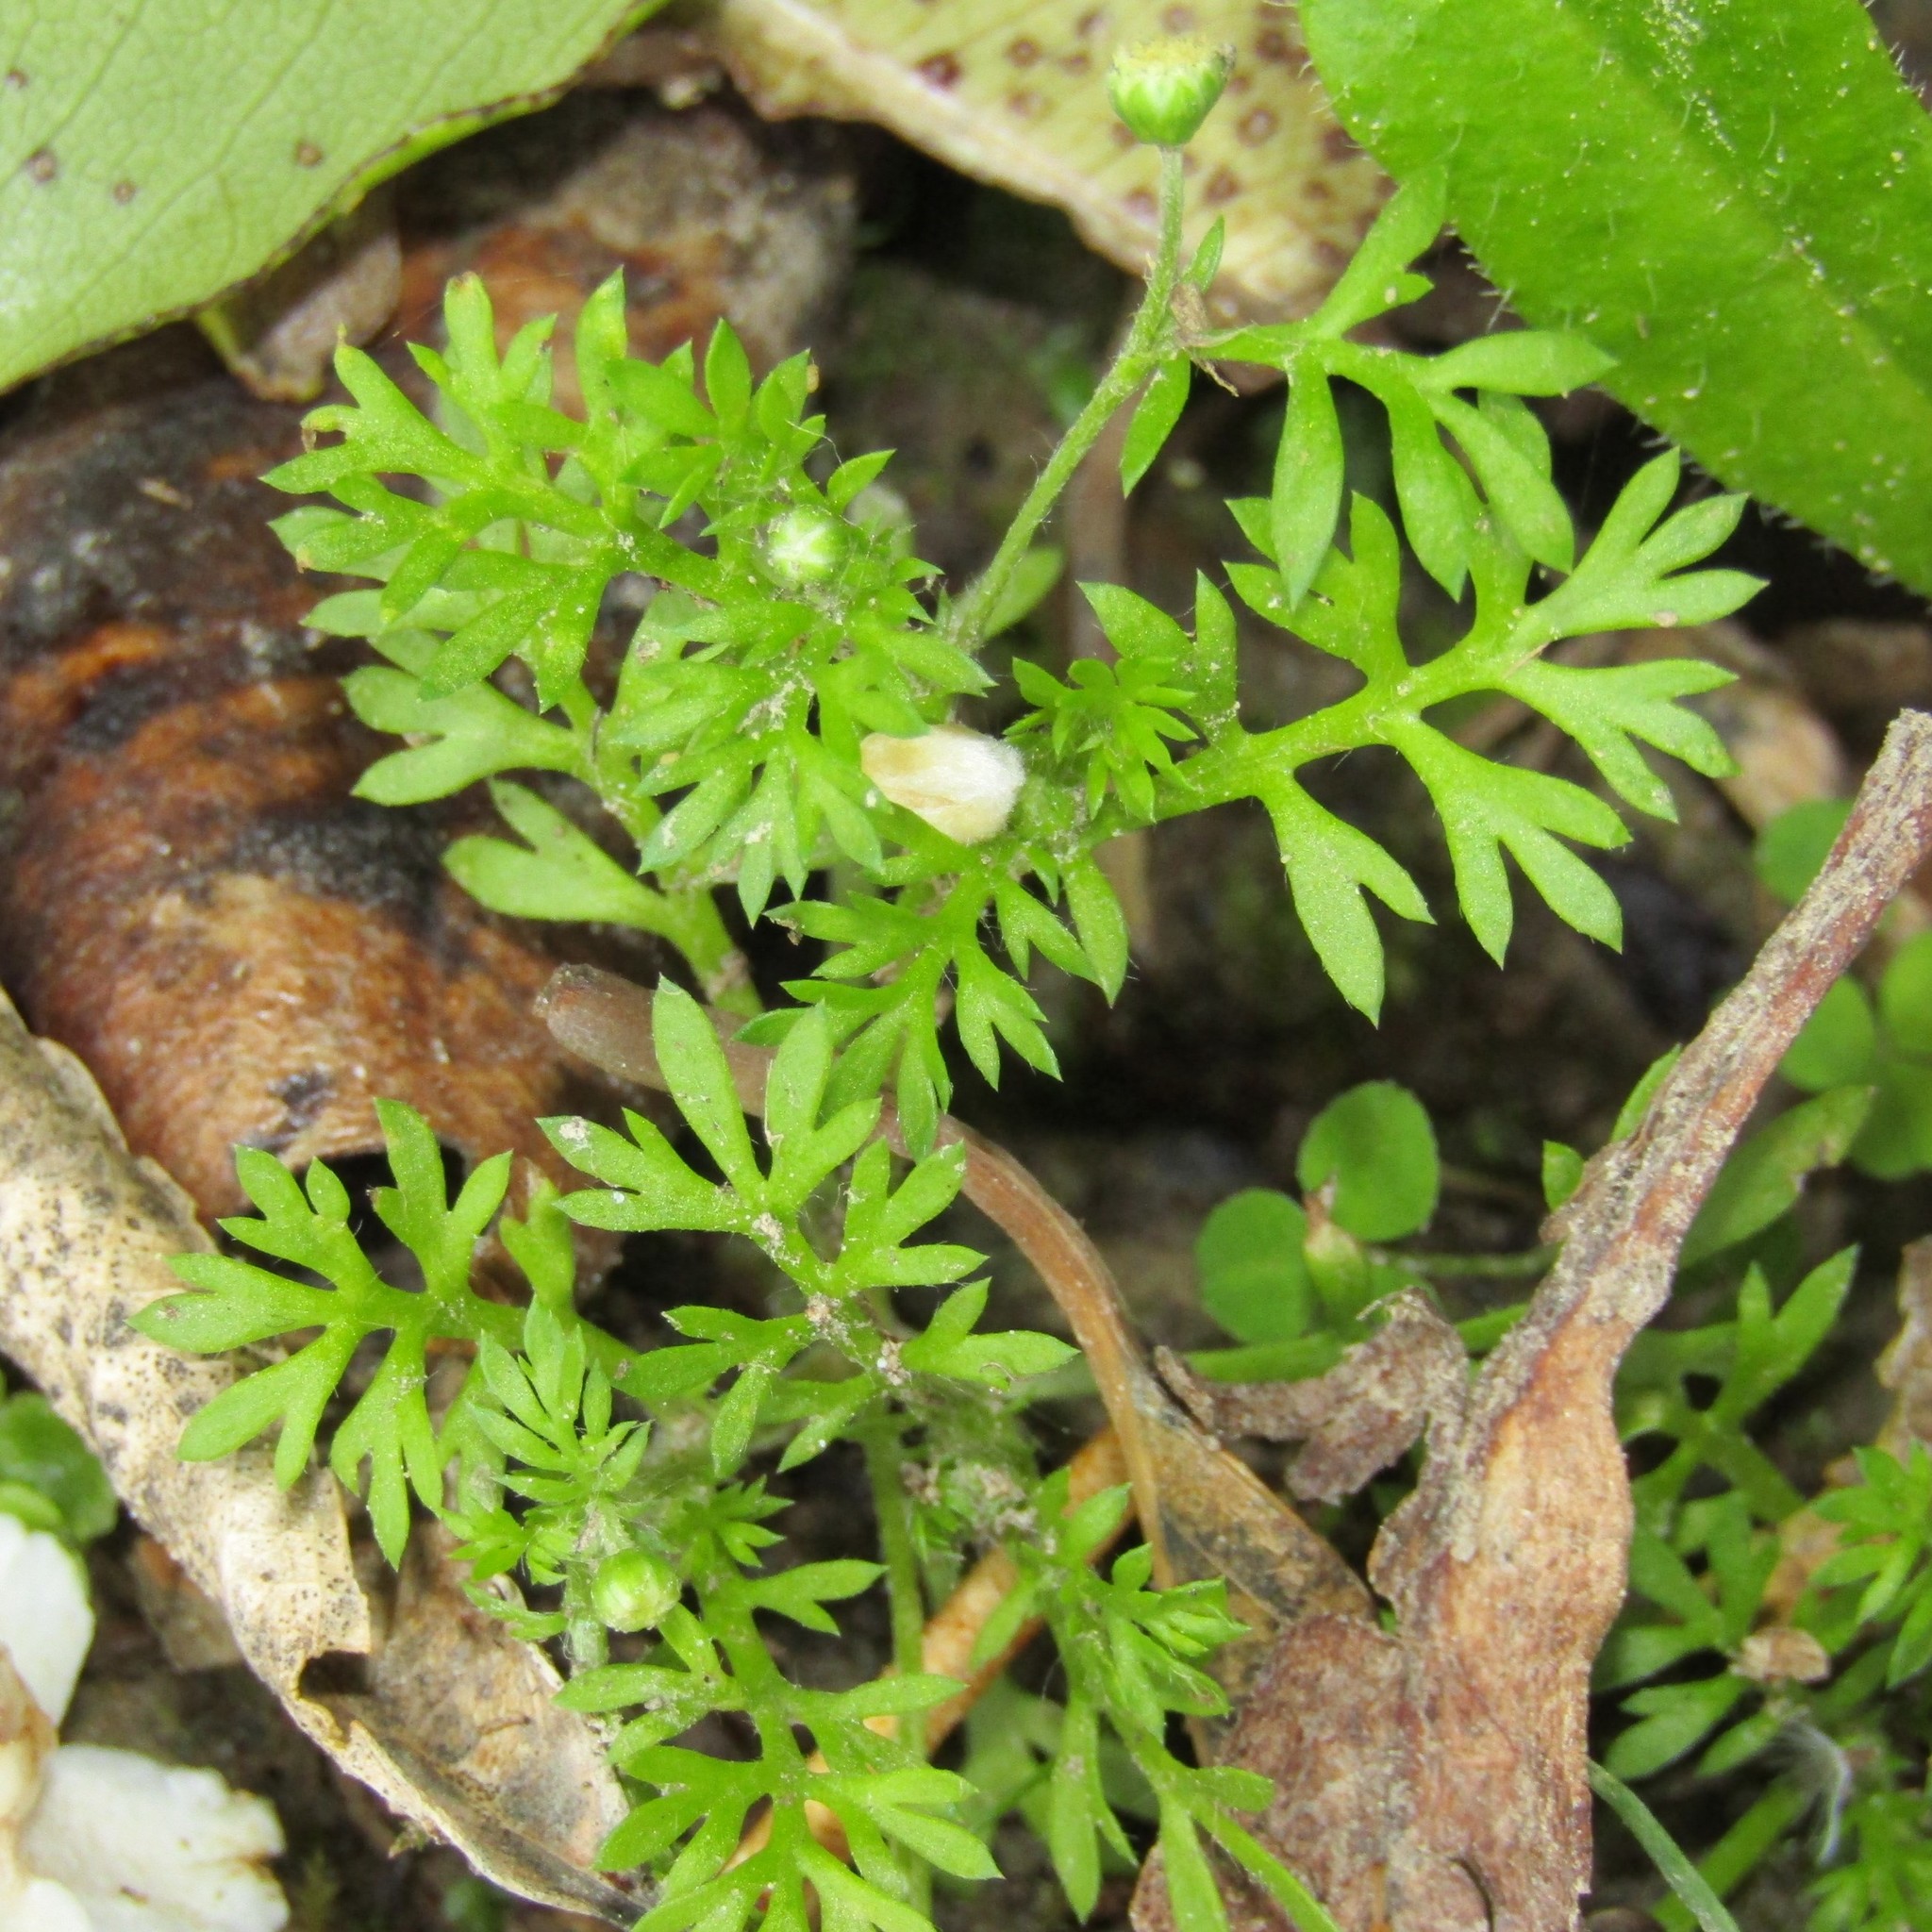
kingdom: Plantae
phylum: Tracheophyta
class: Magnoliopsida
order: Asterales
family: Asteraceae
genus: Cotula
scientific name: Cotula australis
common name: Australian waterbuttons
